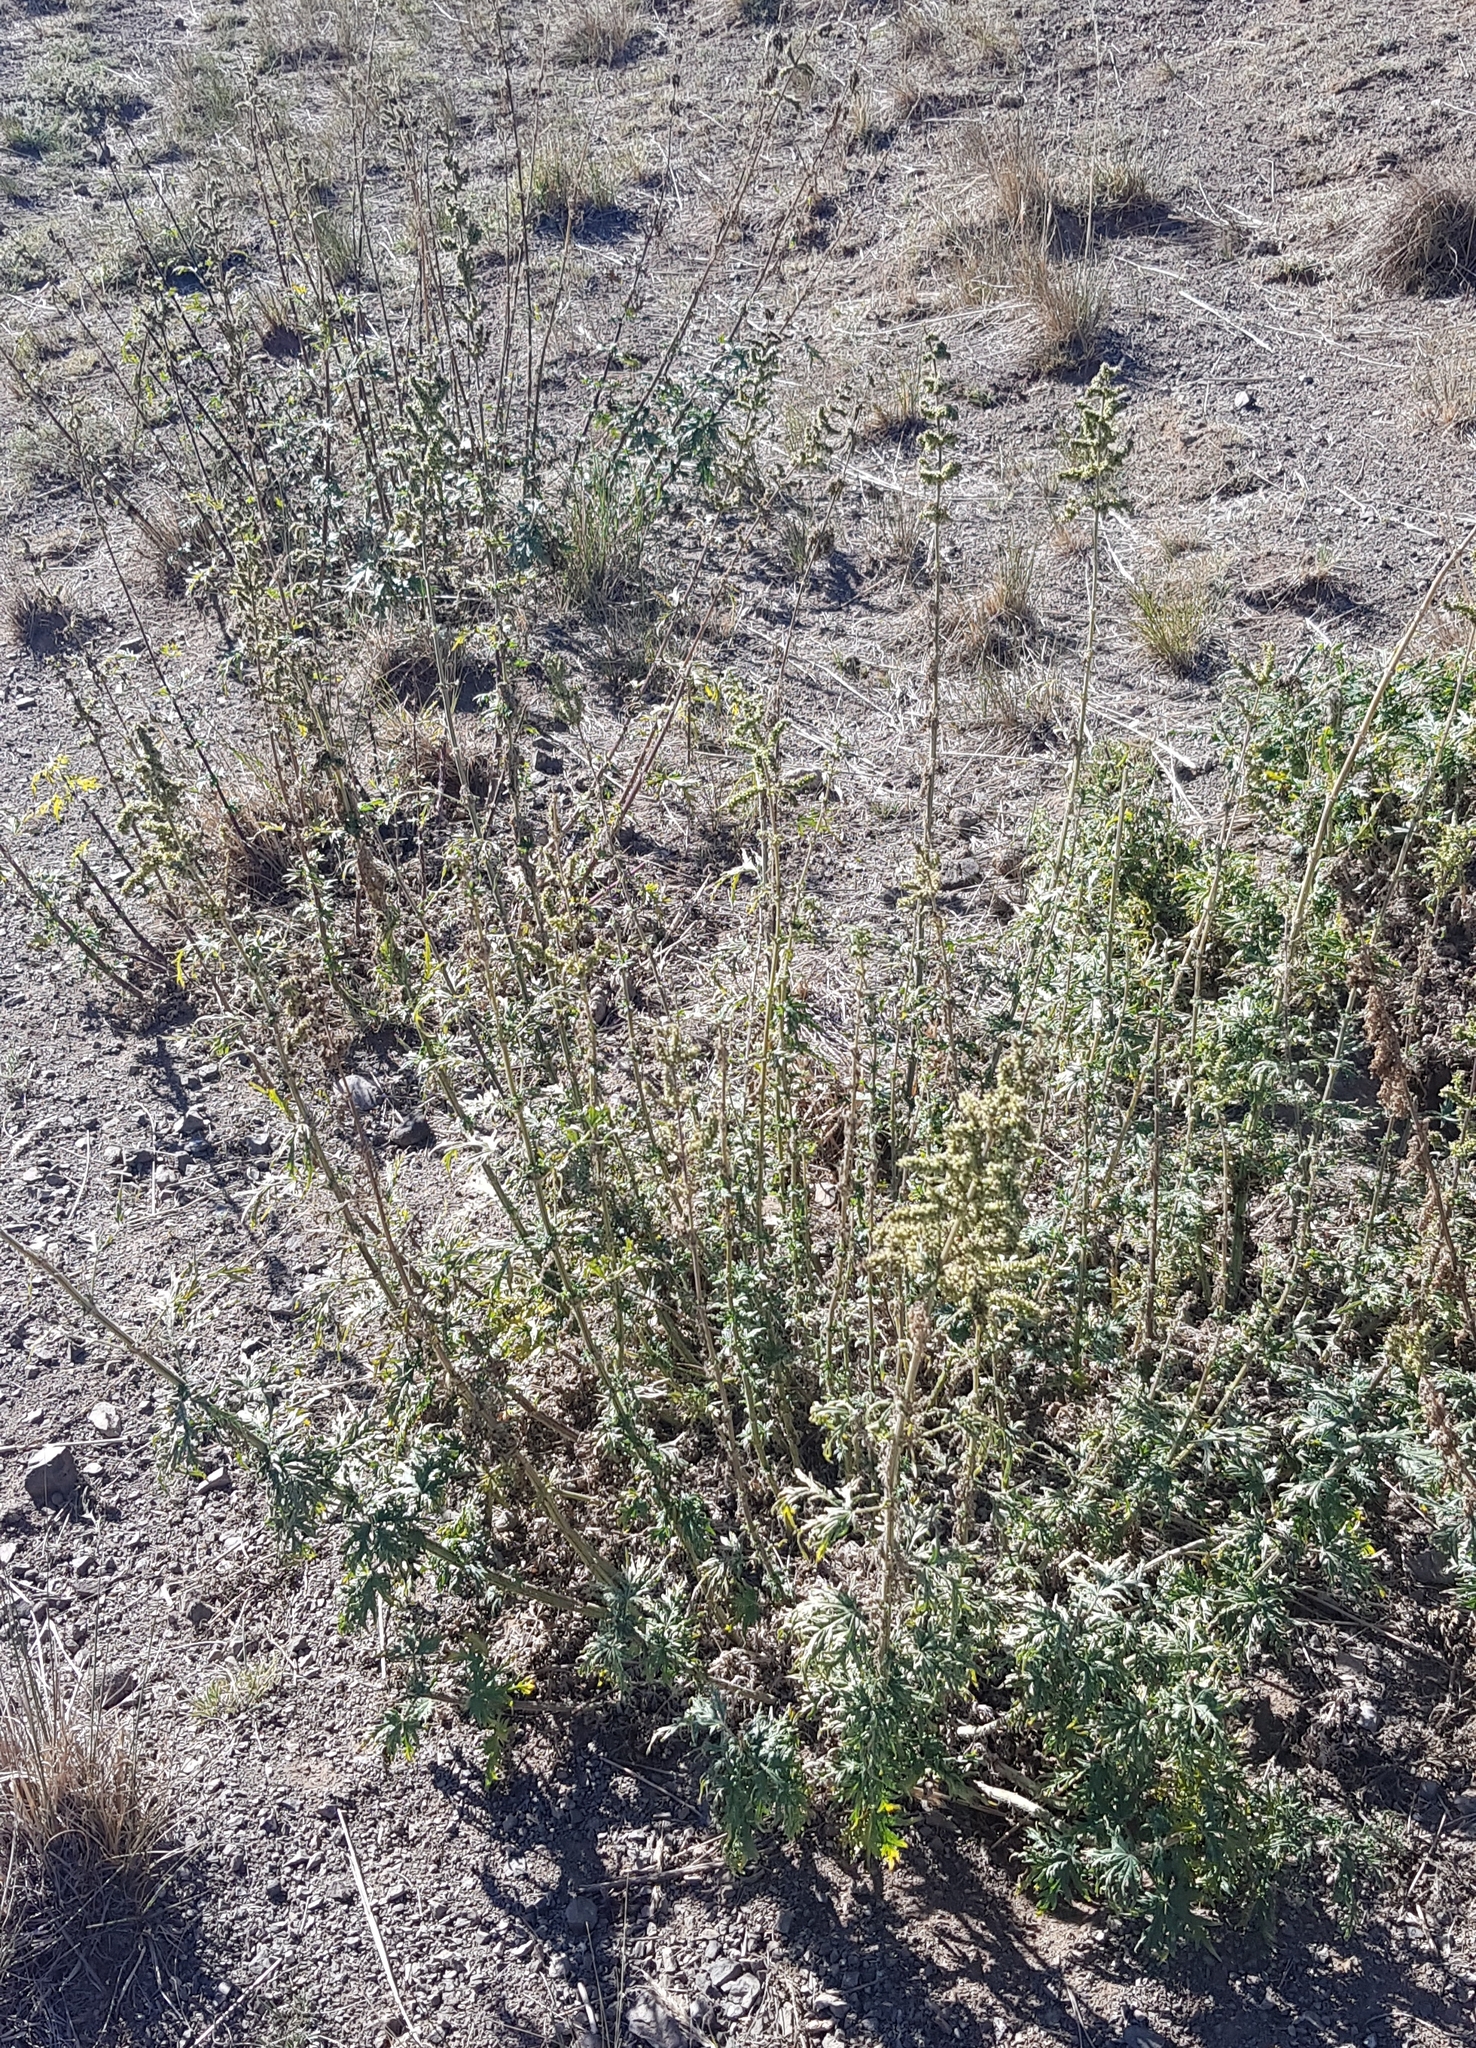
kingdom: Plantae
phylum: Tracheophyta
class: Magnoliopsida
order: Rosales
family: Urticaceae
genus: Urtica
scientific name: Urtica cannabina
